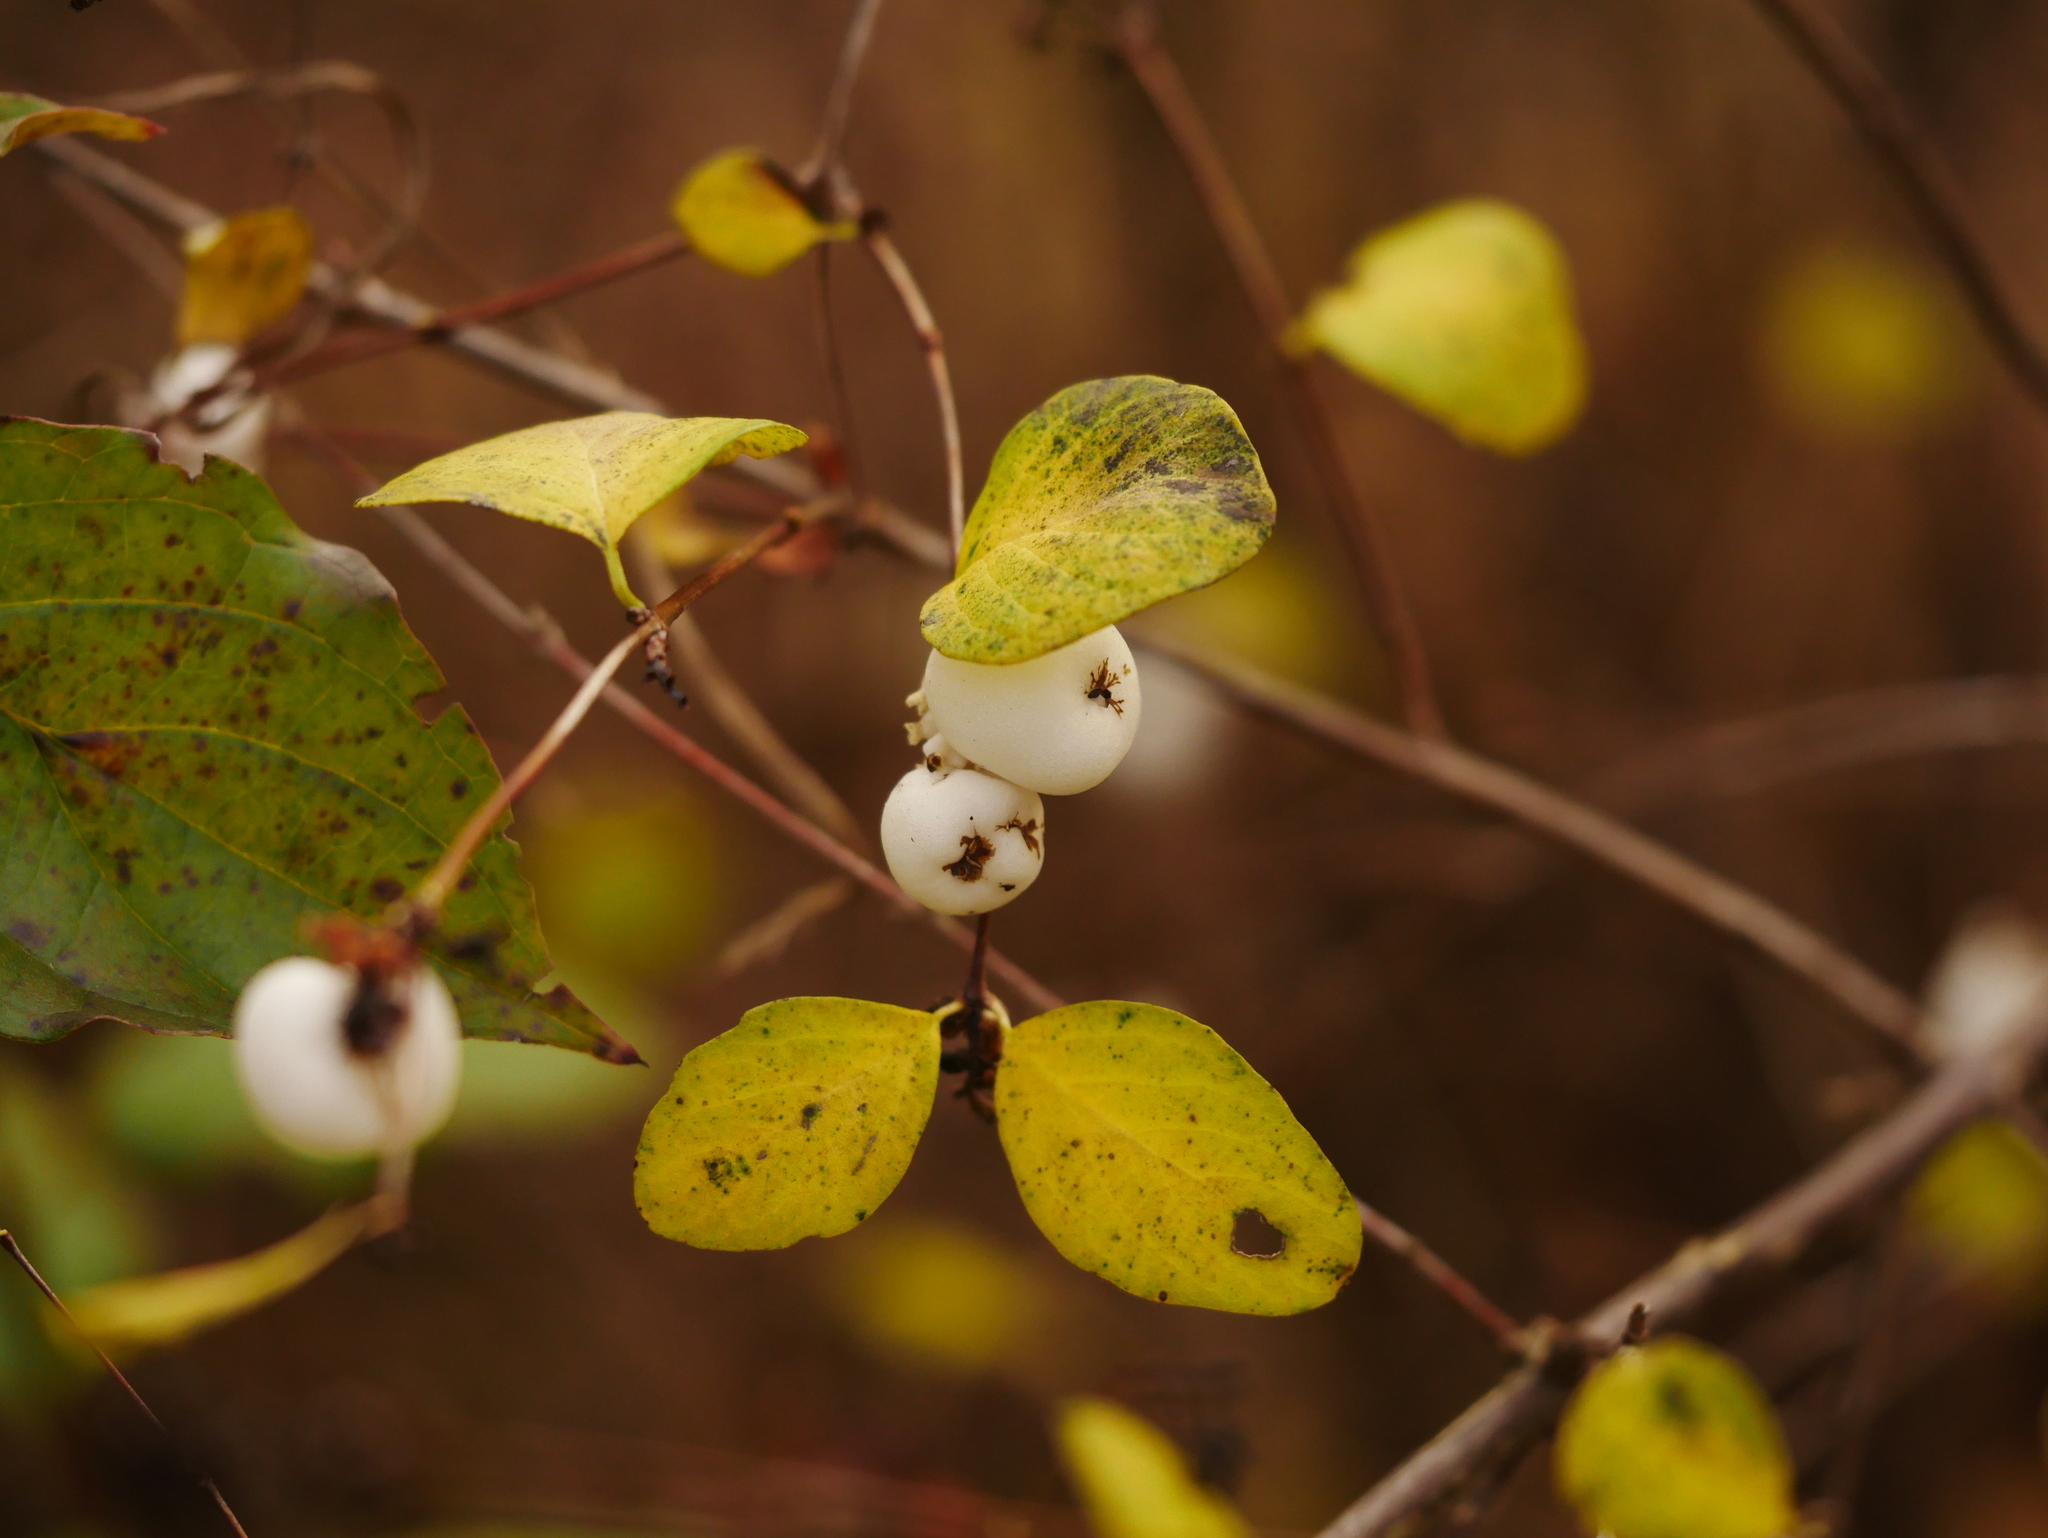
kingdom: Plantae
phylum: Tracheophyta
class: Magnoliopsida
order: Dipsacales
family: Caprifoliaceae
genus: Symphoricarpos
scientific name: Symphoricarpos albus
